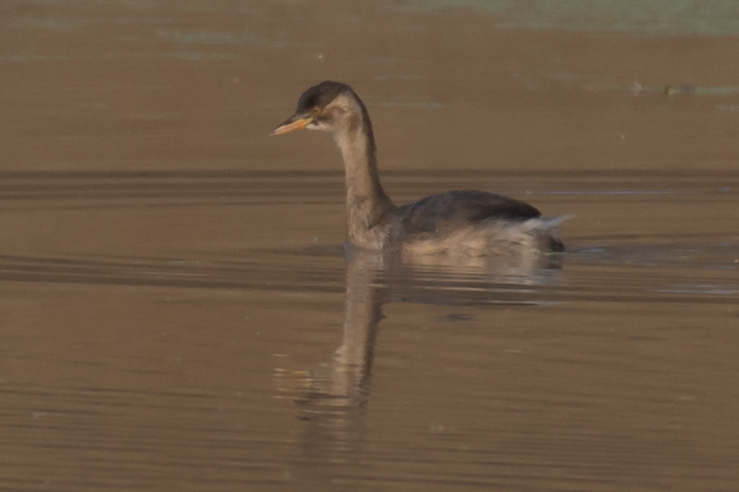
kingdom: Animalia
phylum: Chordata
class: Aves
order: Podicipediformes
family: Podicipedidae
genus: Tachybaptus
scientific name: Tachybaptus ruficollis
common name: Little grebe
